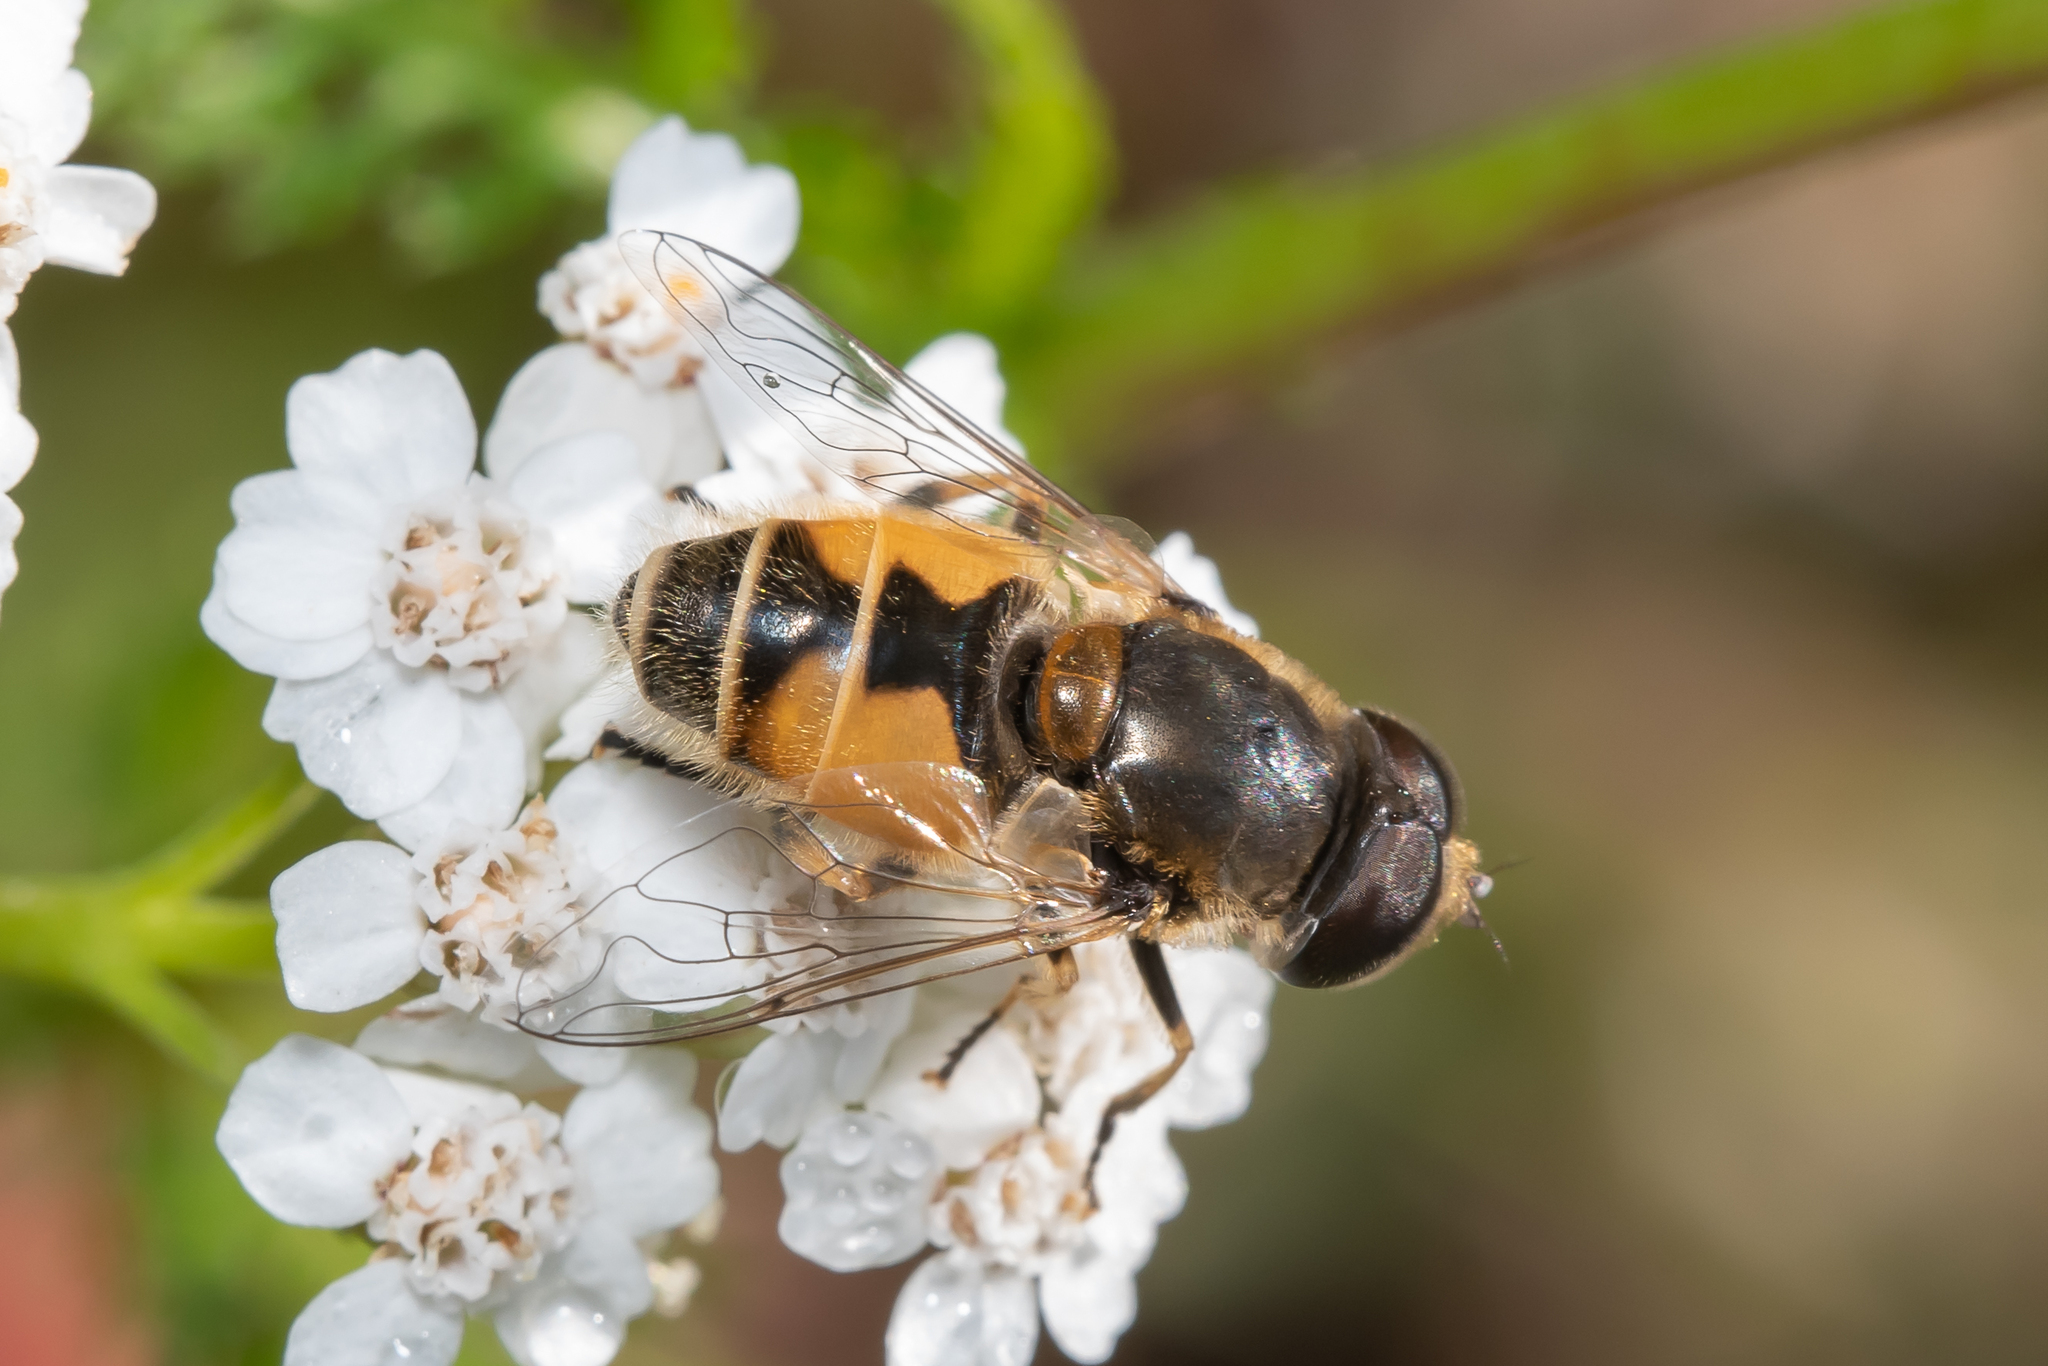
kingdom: Animalia
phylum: Arthropoda
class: Insecta
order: Diptera
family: Syrphidae
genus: Eristalis
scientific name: Eristalis arbustorum
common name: Hover fly
